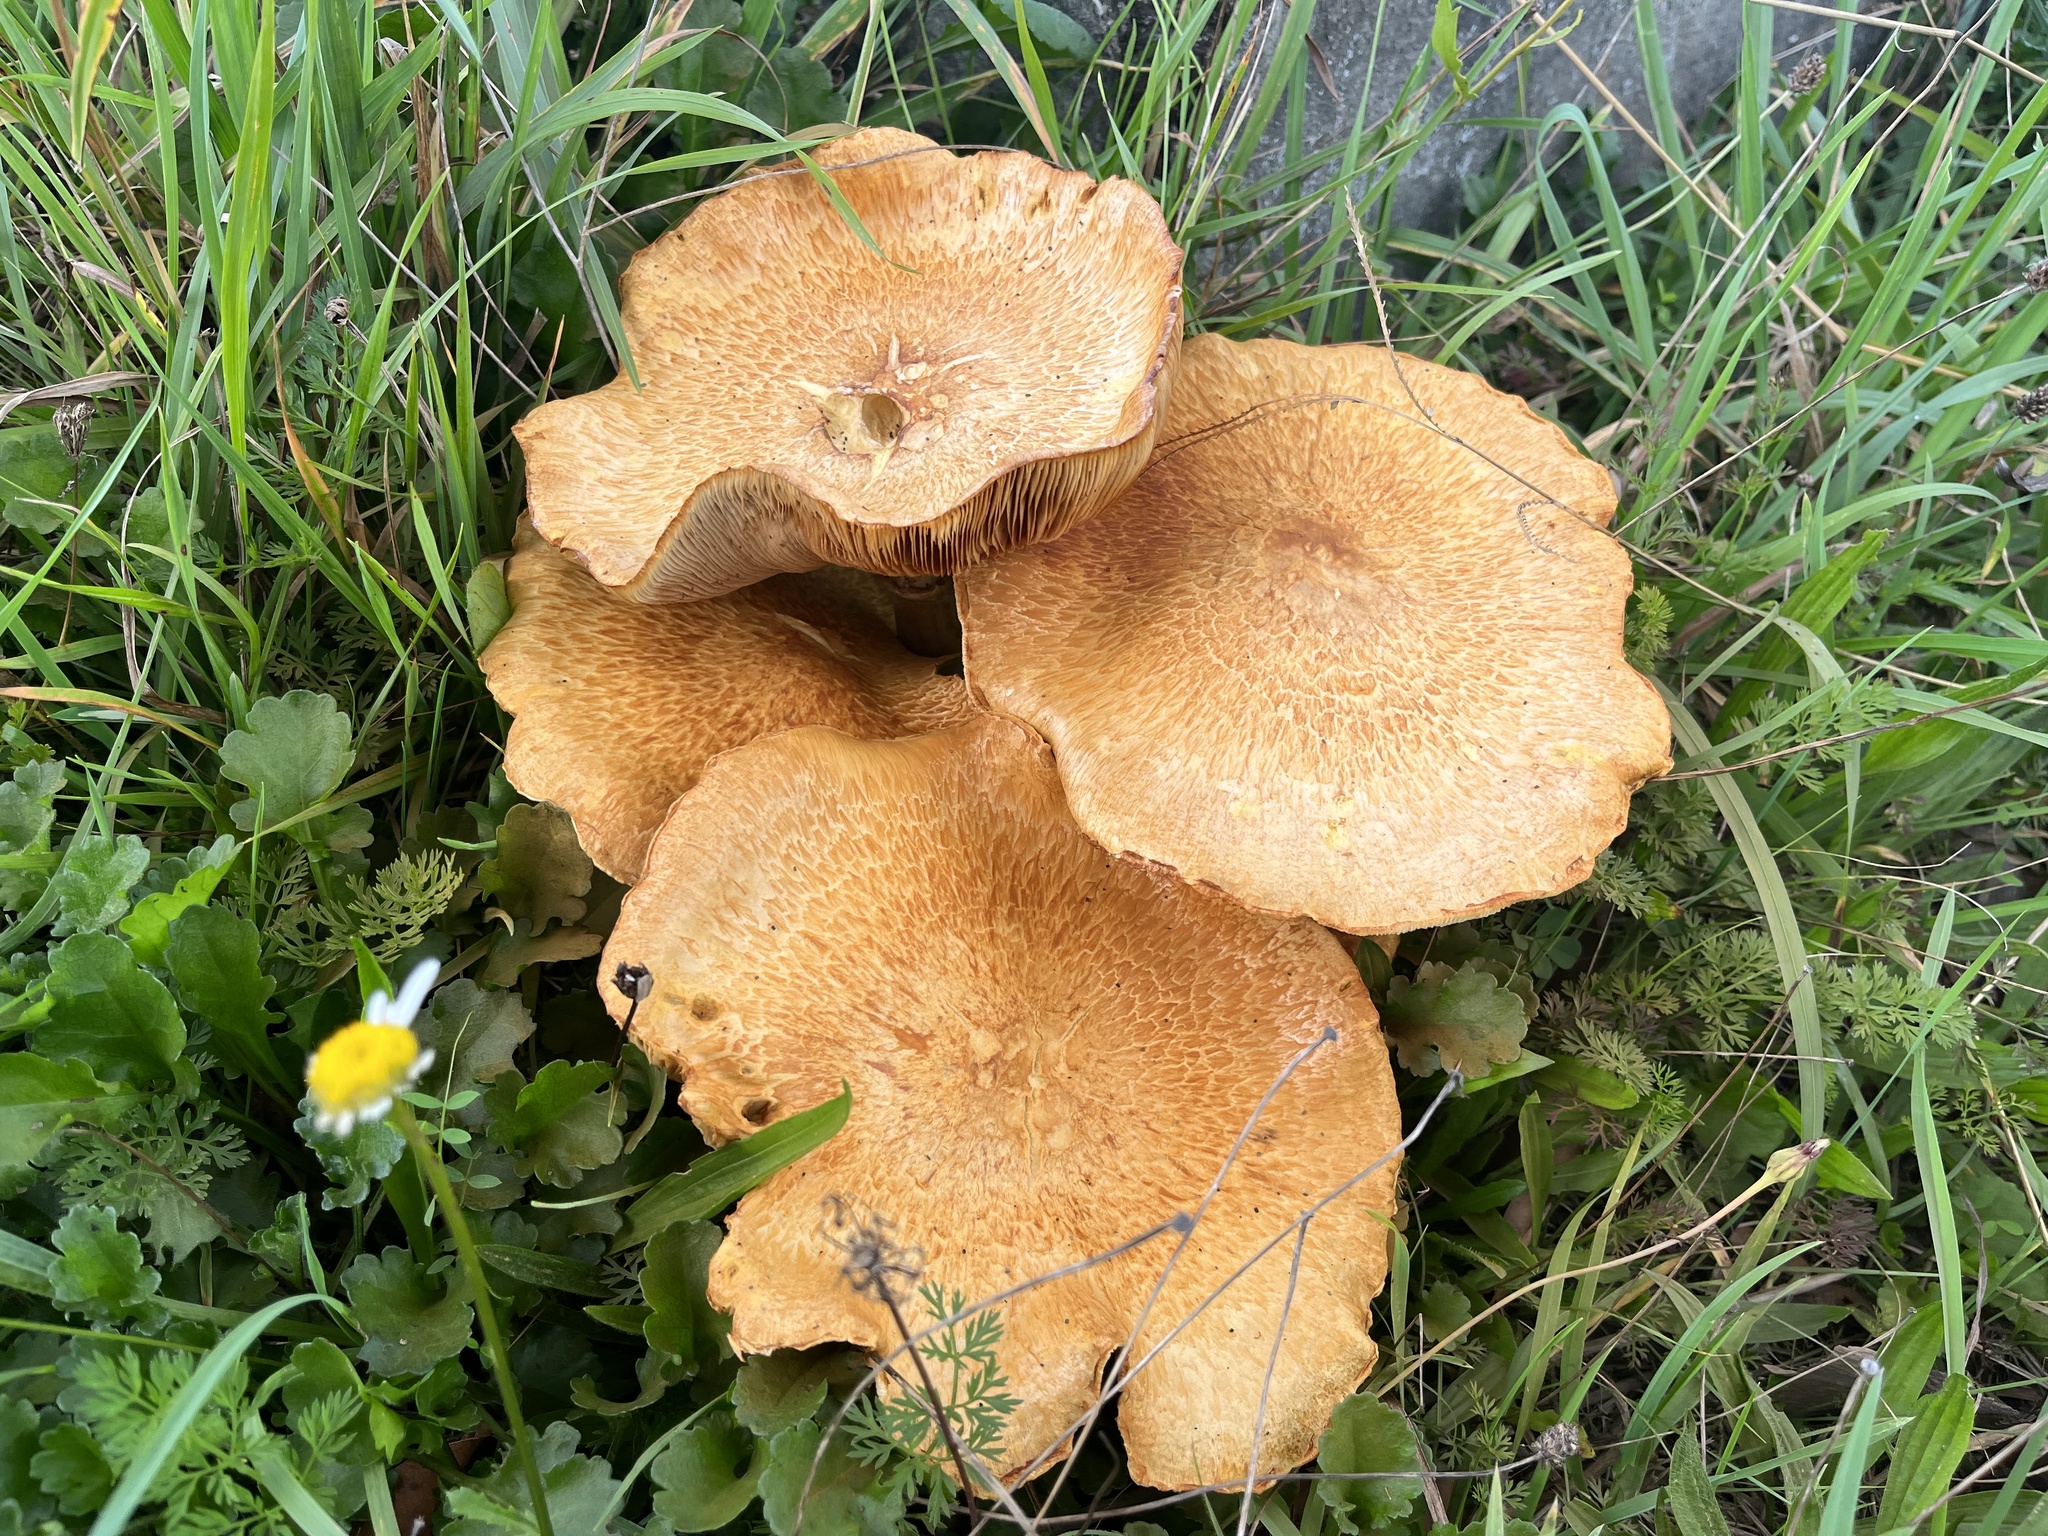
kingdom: Fungi
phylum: Basidiomycota
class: Agaricomycetes
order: Agaricales
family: Hymenogastraceae
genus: Gymnopilus
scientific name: Gymnopilus junonius
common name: Spectacular rustgill
